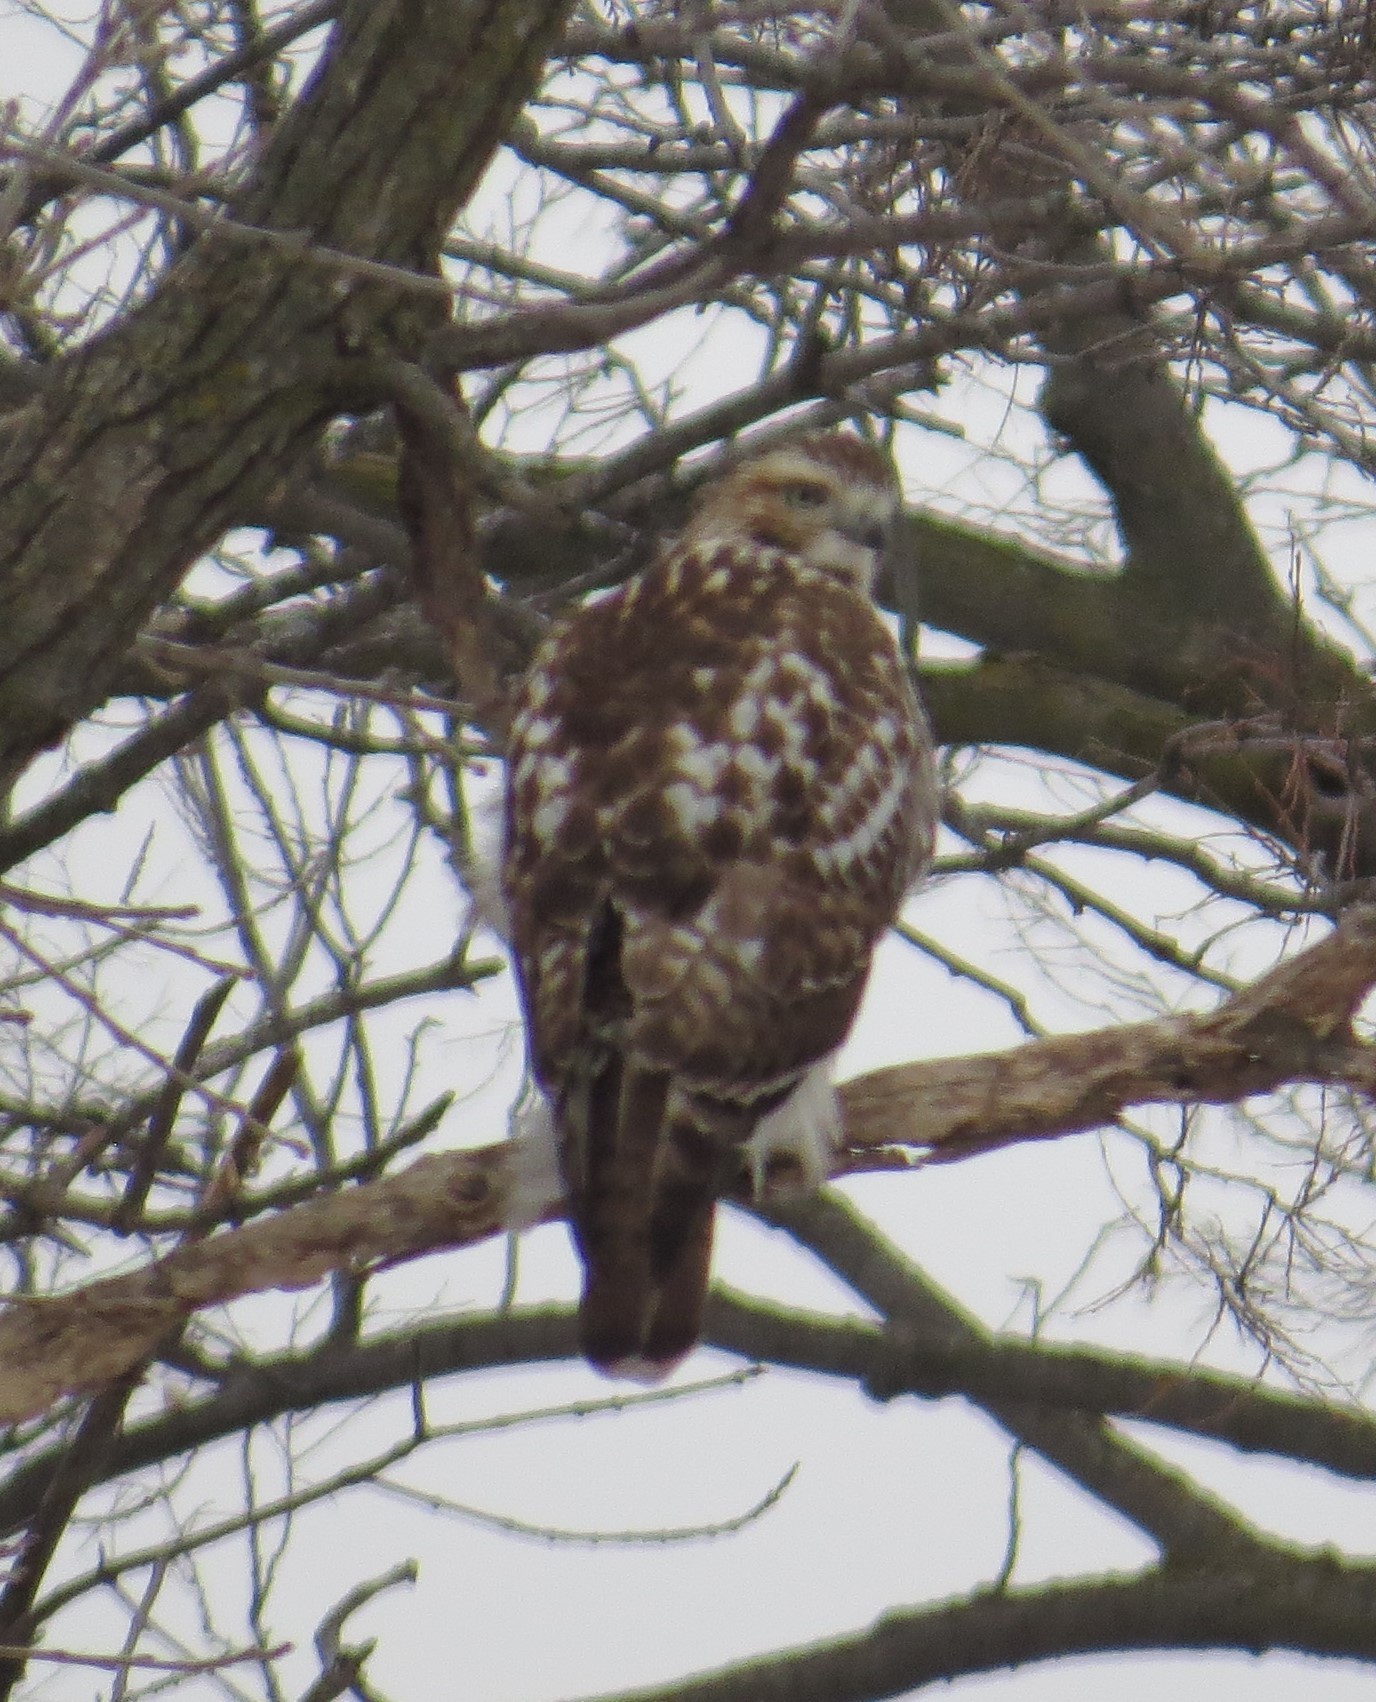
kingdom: Animalia
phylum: Chordata
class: Aves
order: Accipitriformes
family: Accipitridae
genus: Buteo
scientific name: Buteo jamaicensis
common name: Red-tailed hawk
